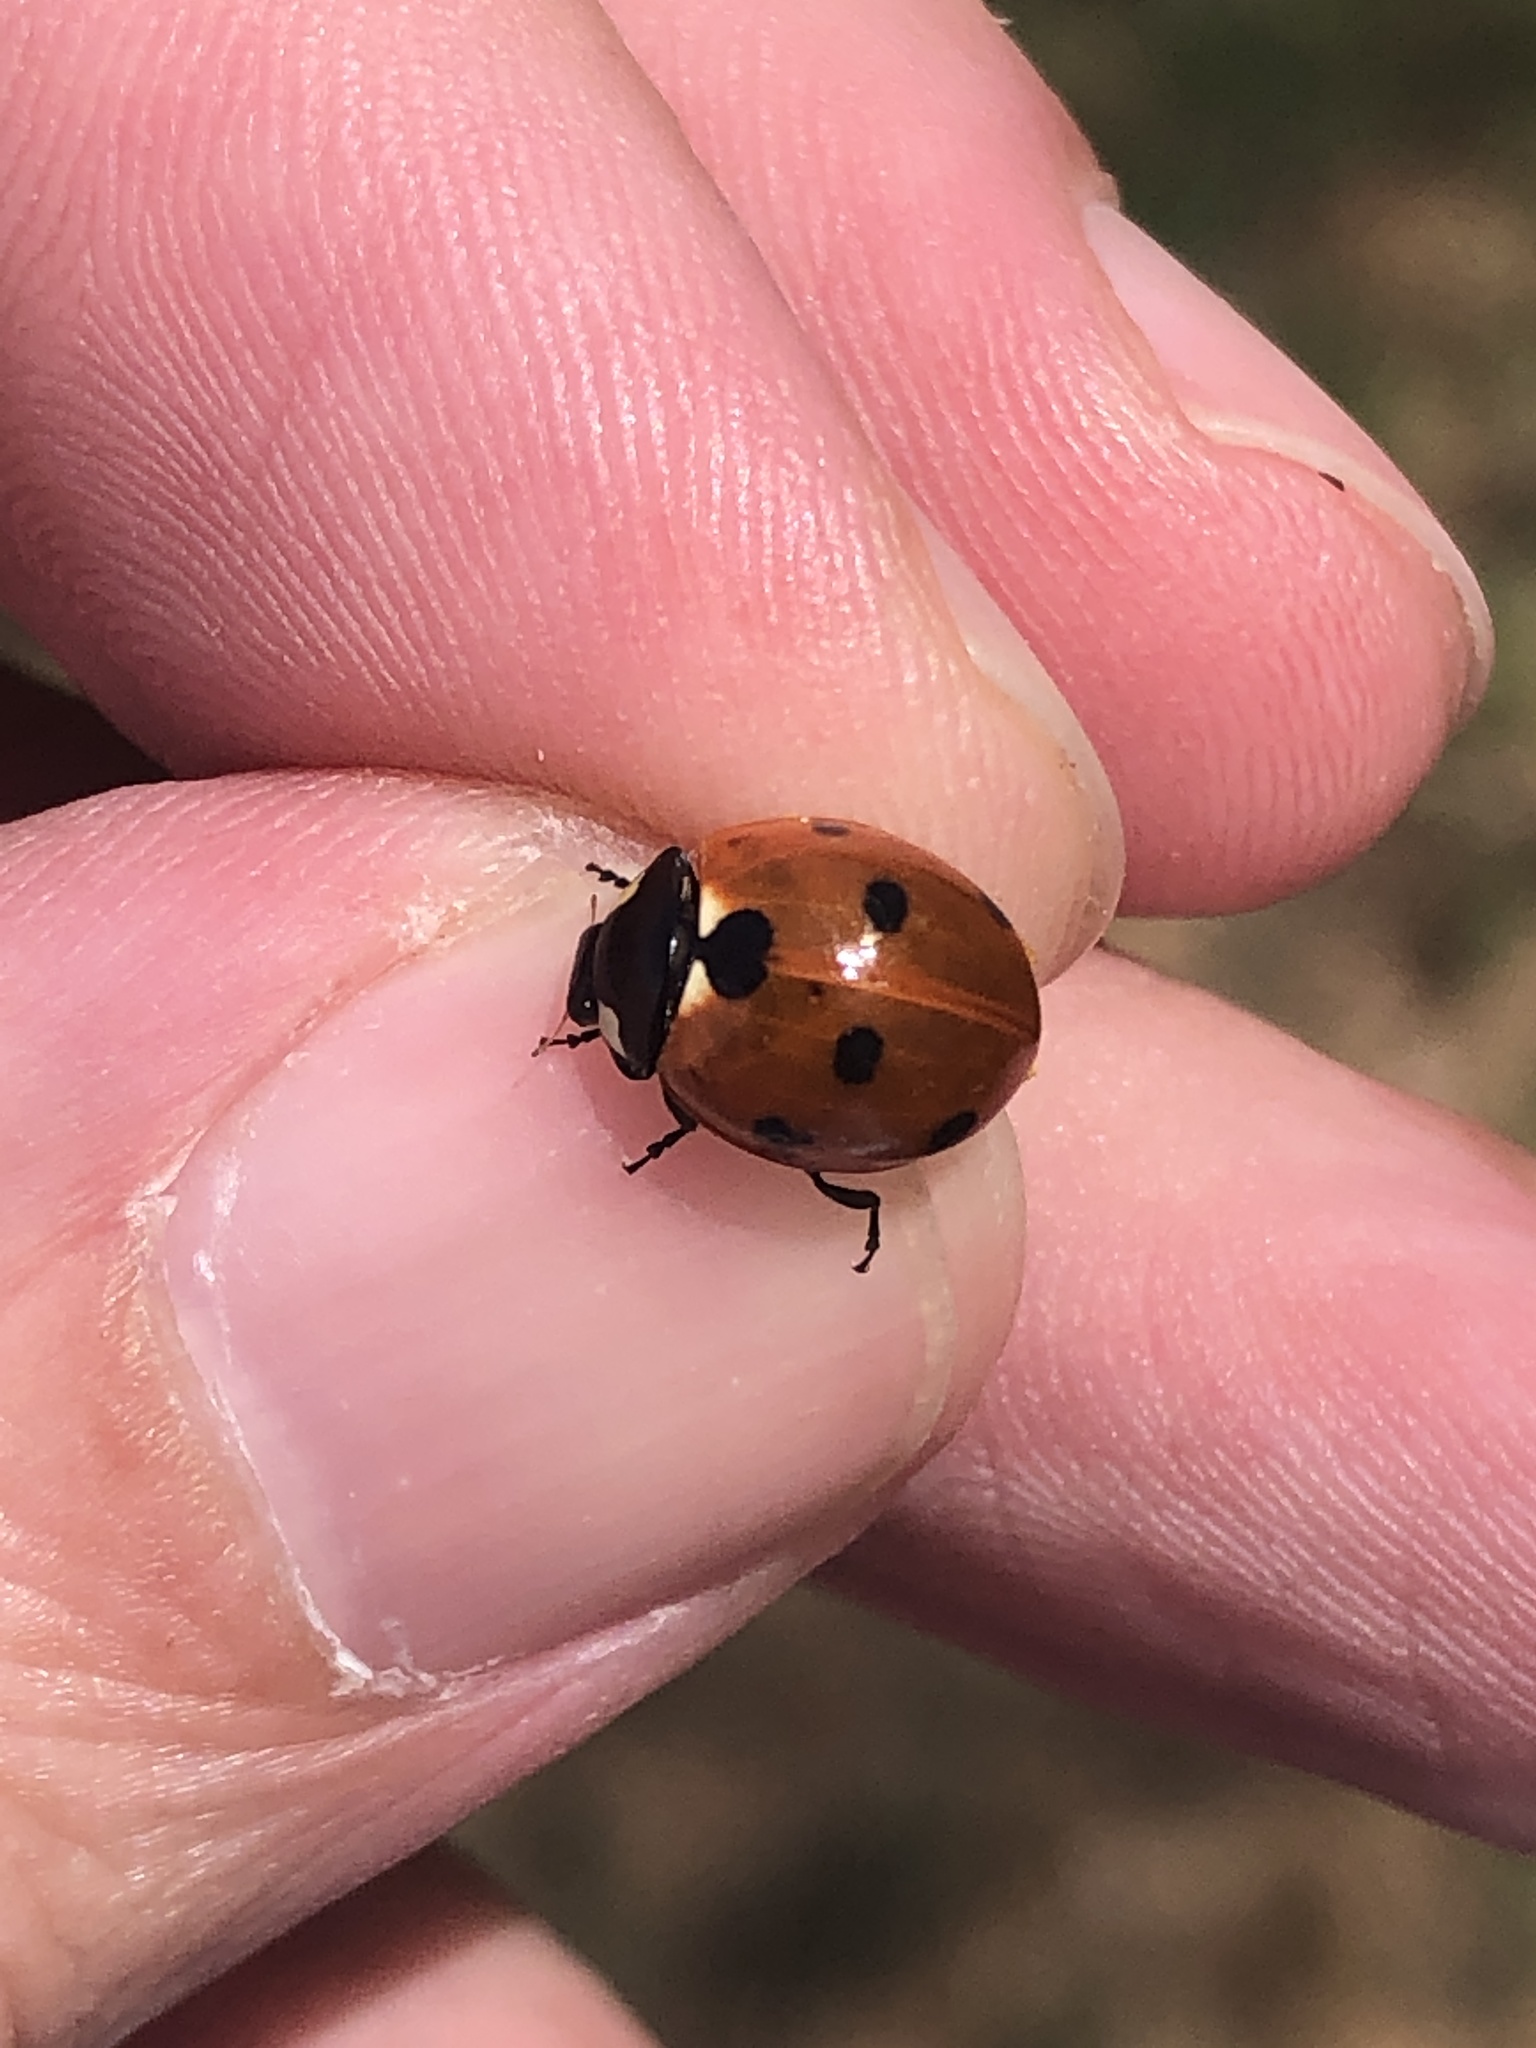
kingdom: Animalia
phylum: Arthropoda
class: Insecta
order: Coleoptera
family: Coccinellidae
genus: Coccinella
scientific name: Coccinella septempunctata
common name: Sevenspotted lady beetle
